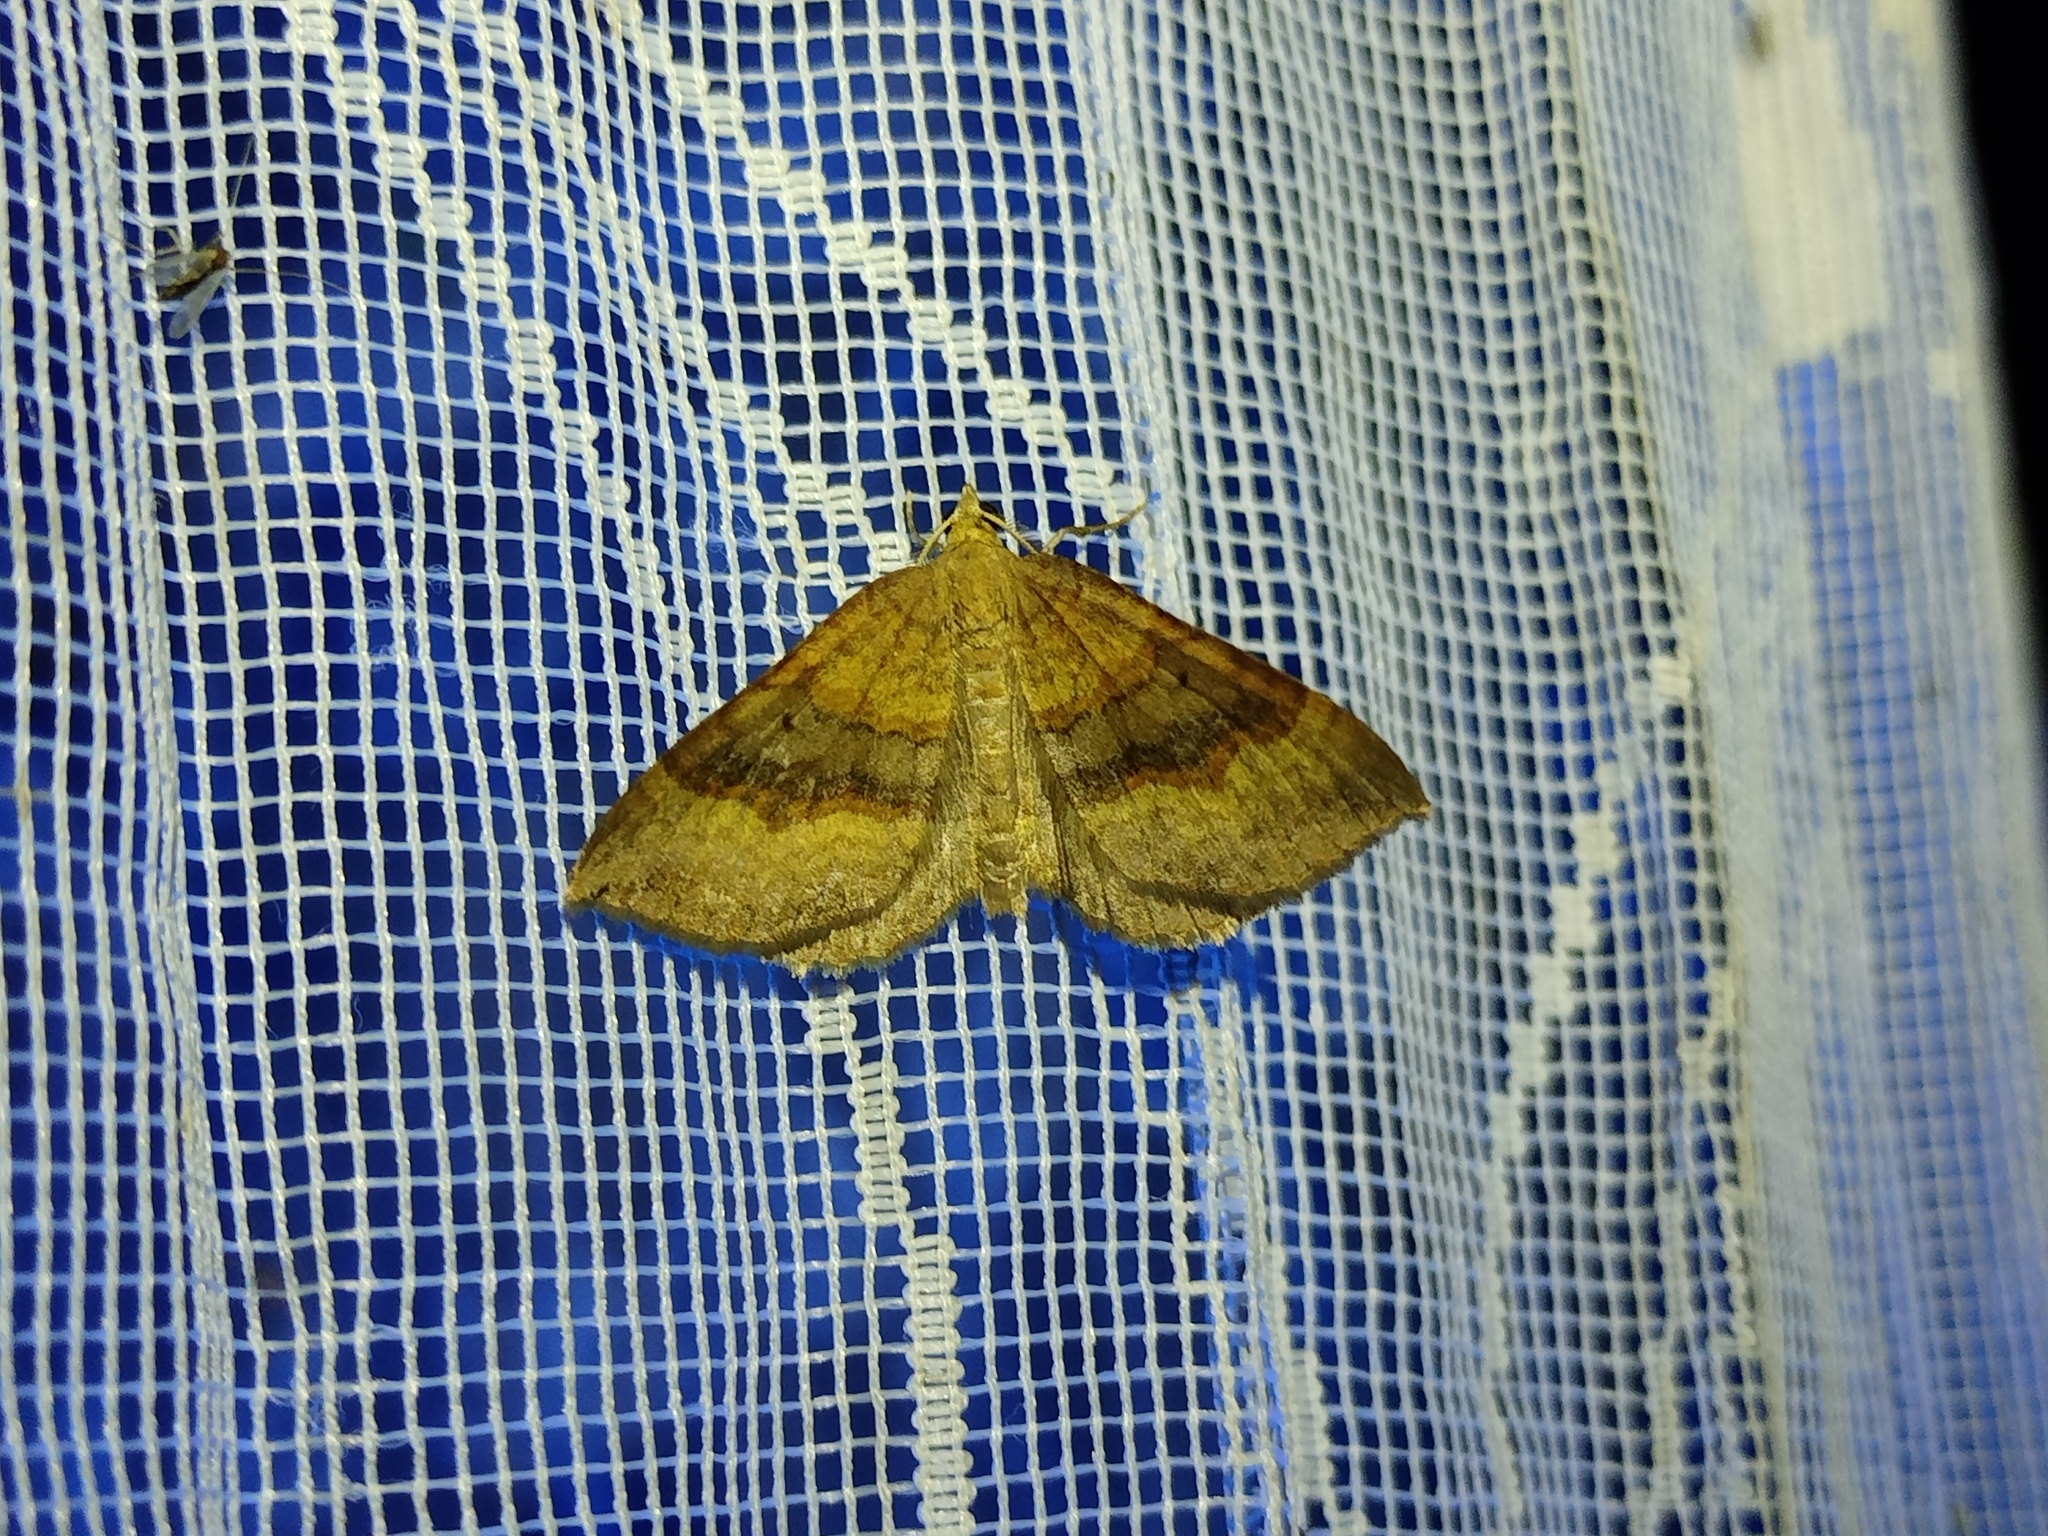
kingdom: Animalia
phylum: Arthropoda
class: Insecta
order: Lepidoptera
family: Geometridae
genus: Scotopteryx
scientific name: Scotopteryx chenopodiata
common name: Shaded broad-bar
